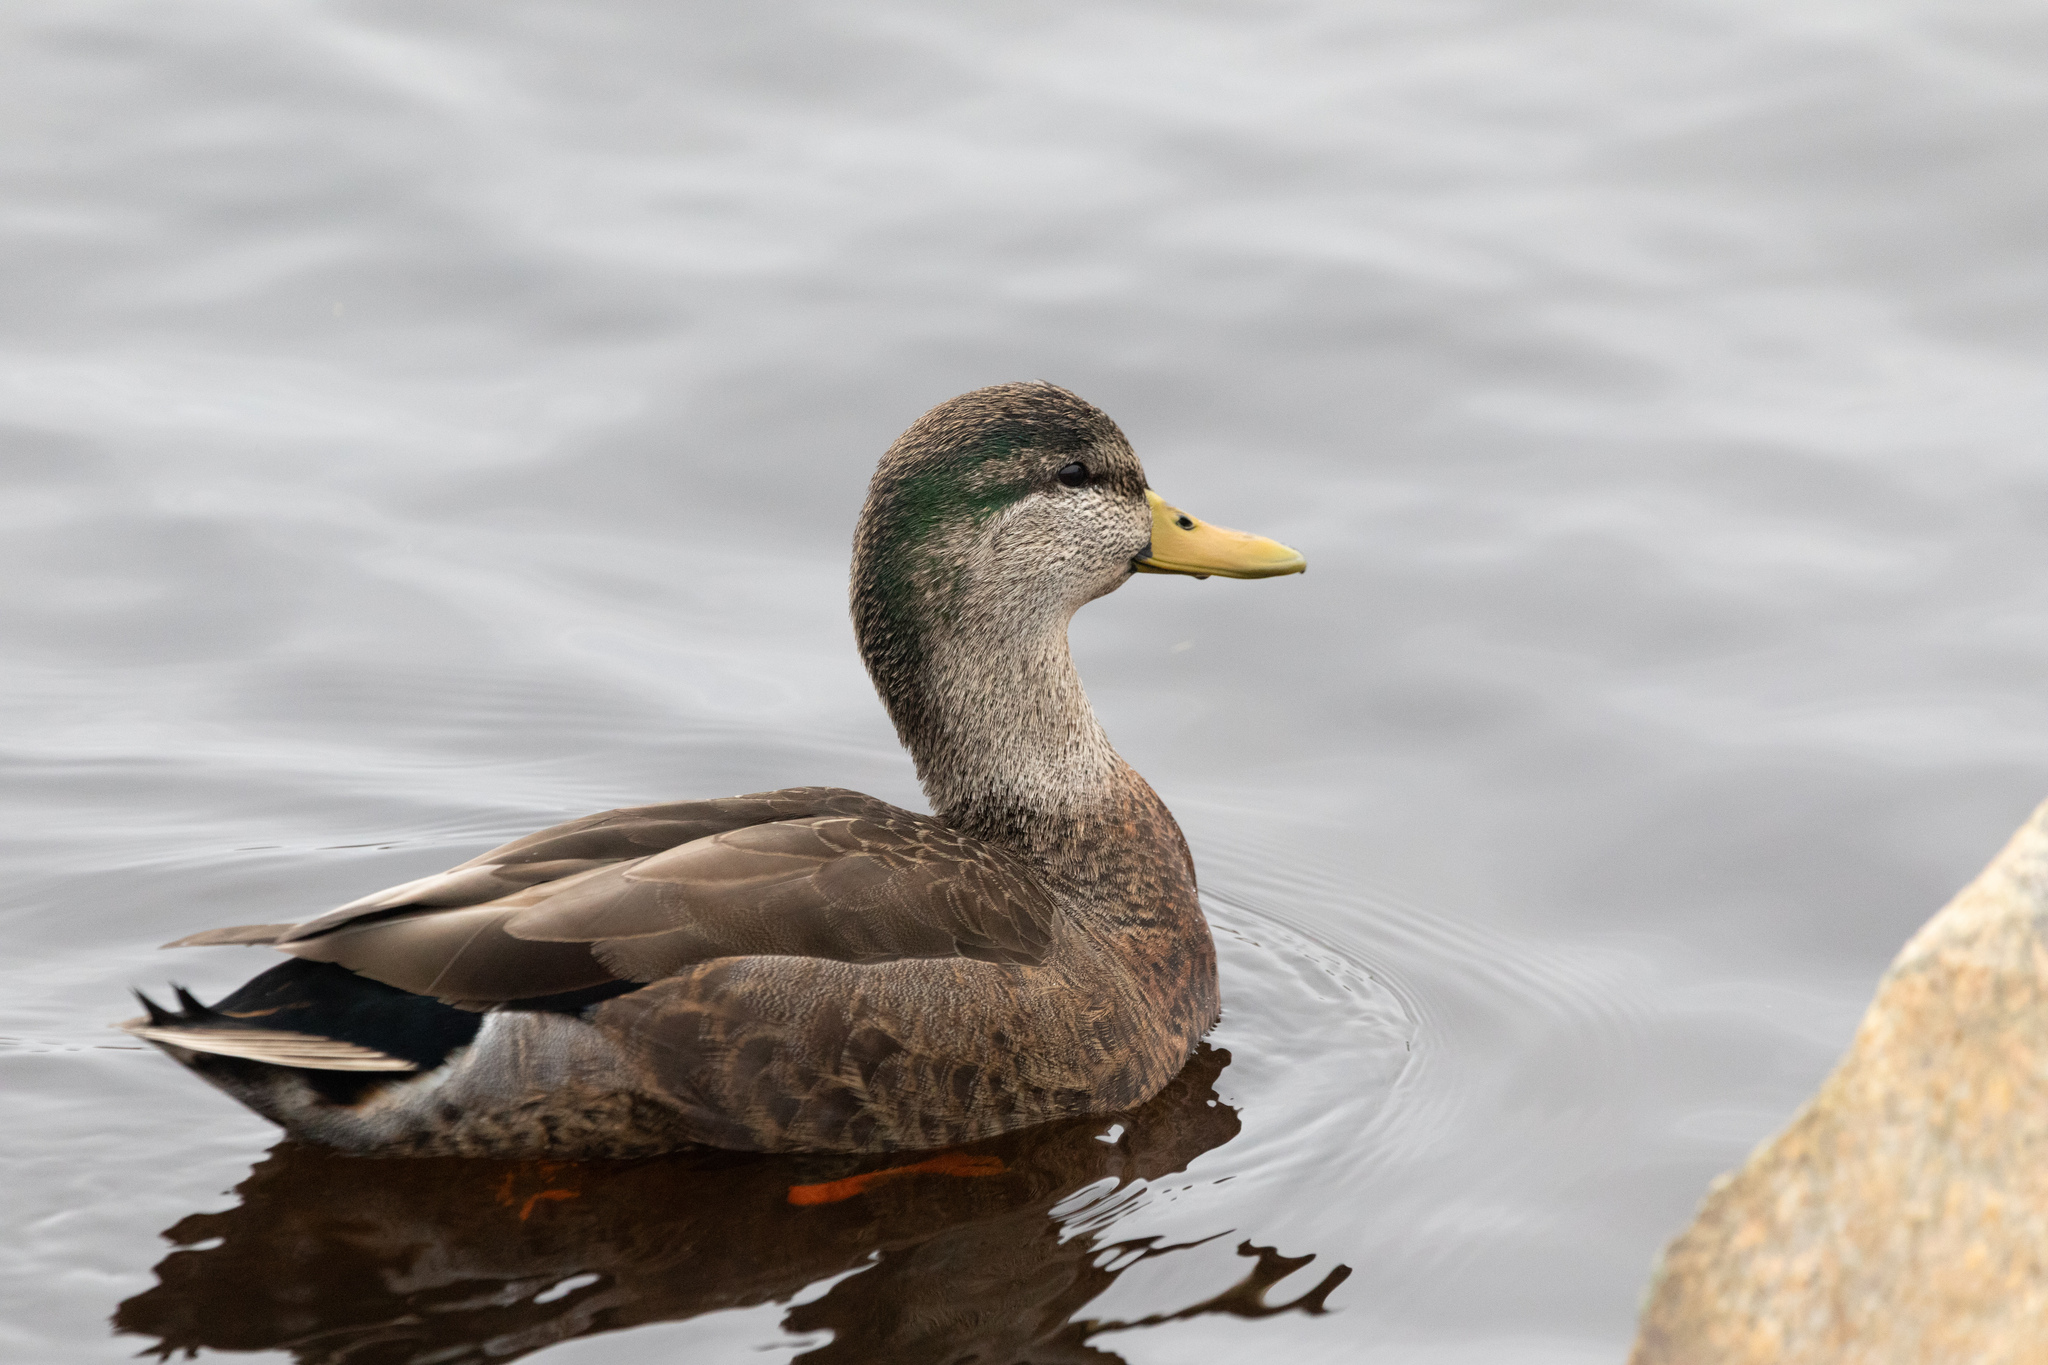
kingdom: Animalia
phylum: Chordata
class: Aves
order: Anseriformes
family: Anatidae
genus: Anas
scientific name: Anas
